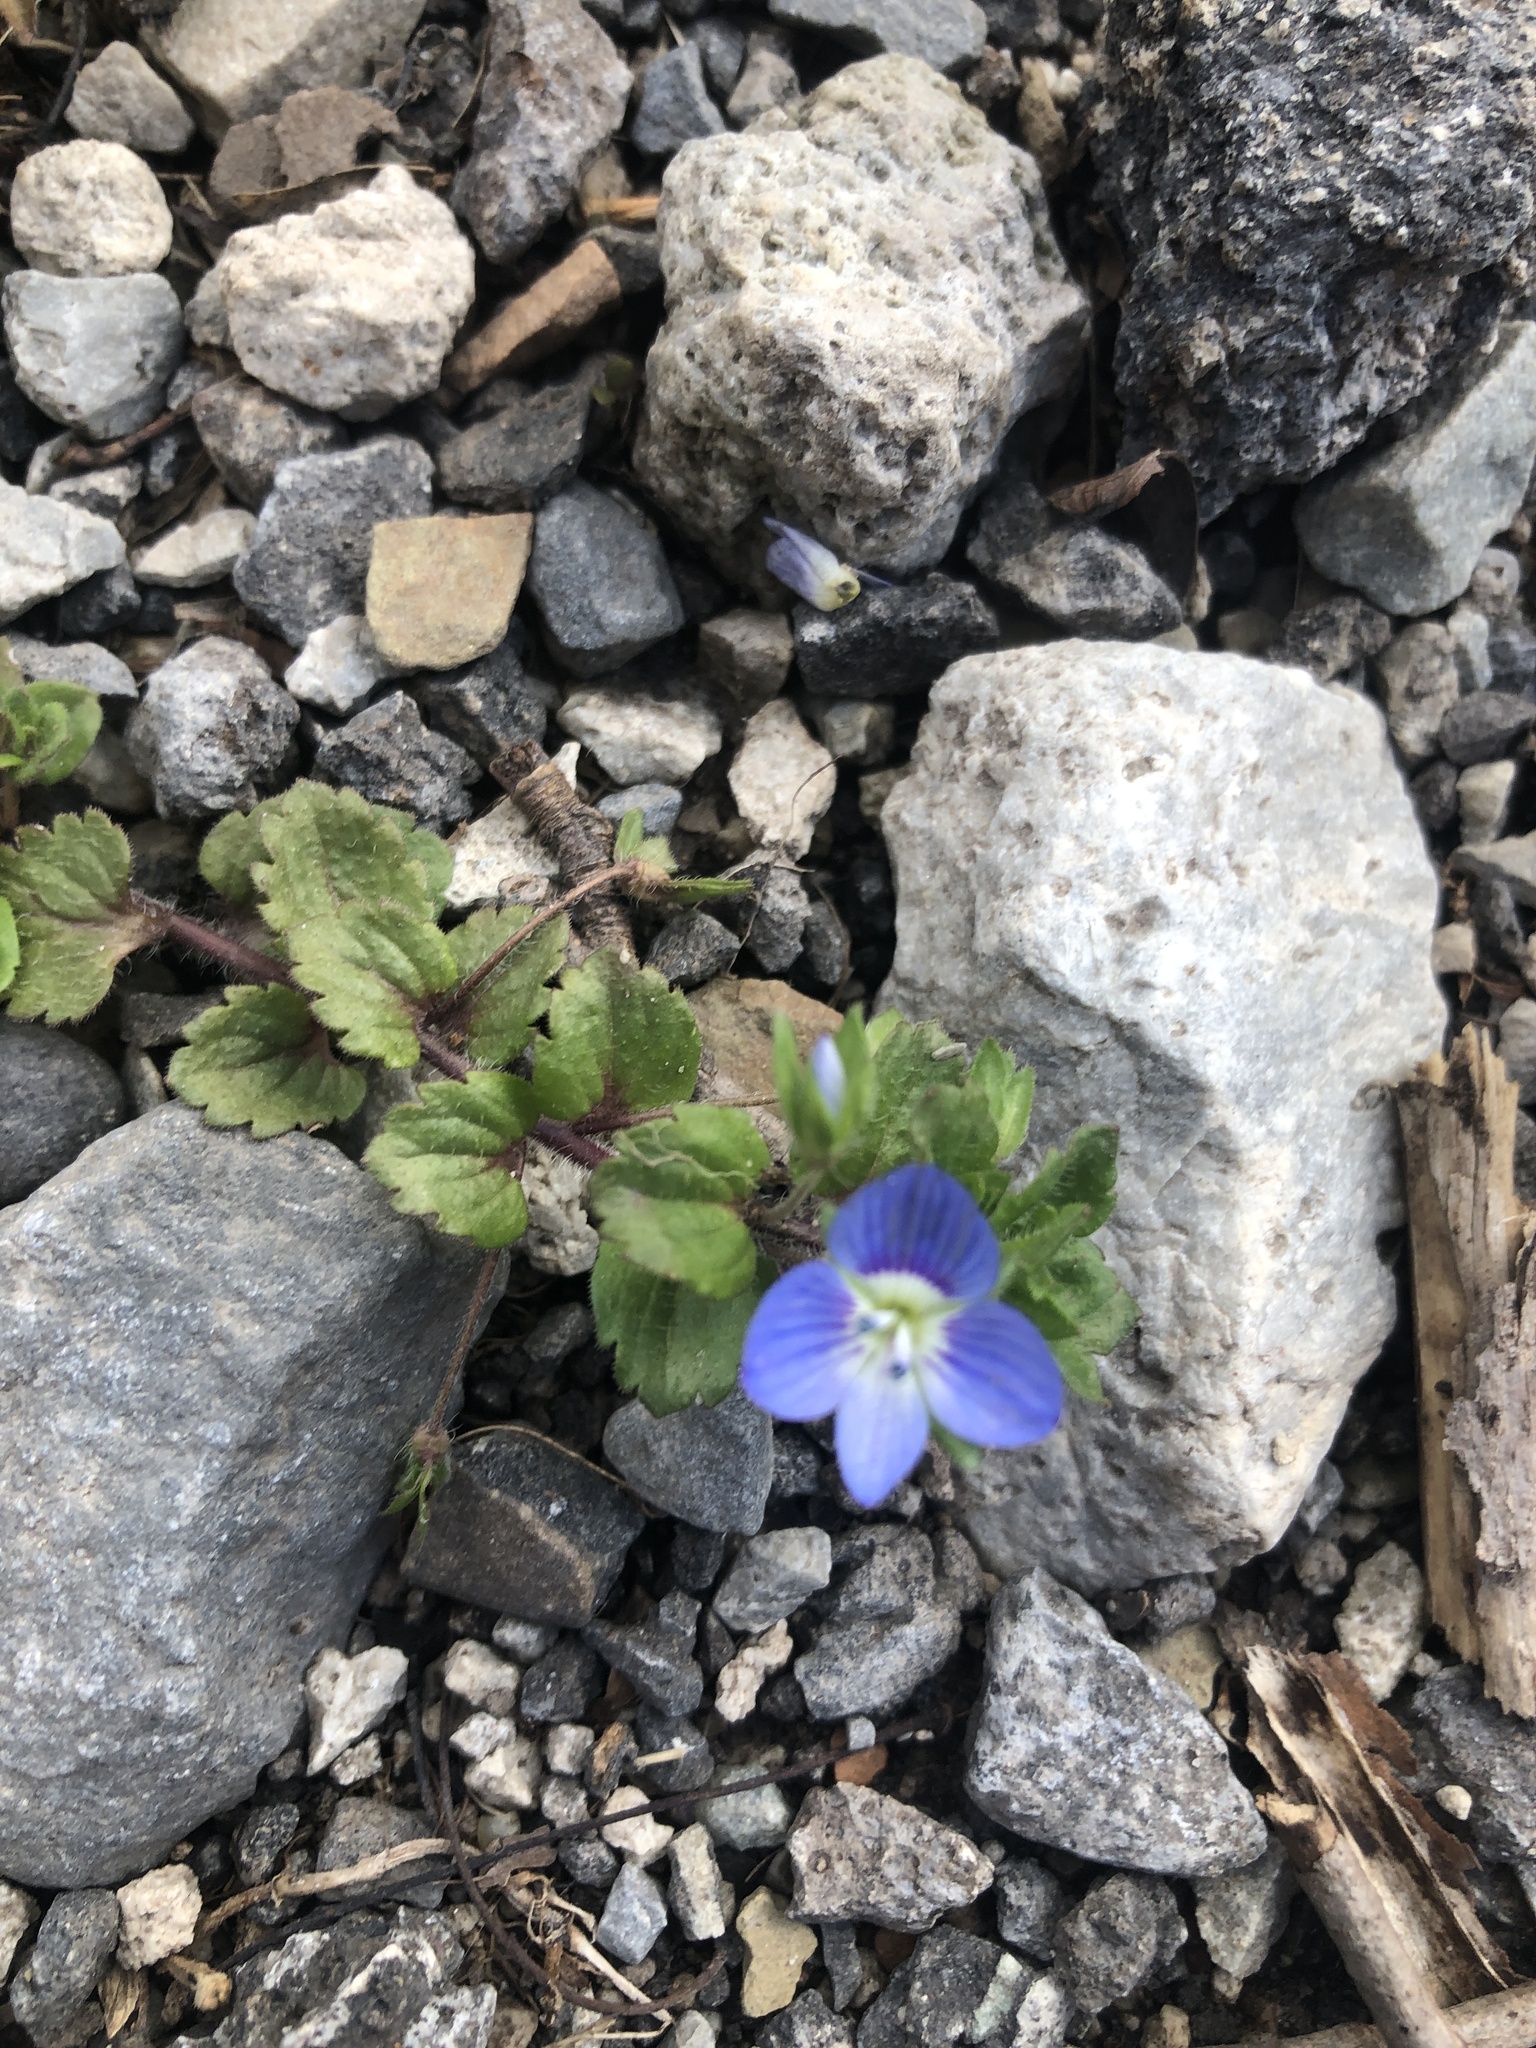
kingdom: Plantae
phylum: Tracheophyta
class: Magnoliopsida
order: Lamiales
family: Plantaginaceae
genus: Veronica
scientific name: Veronica persica
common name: Common field-speedwell
